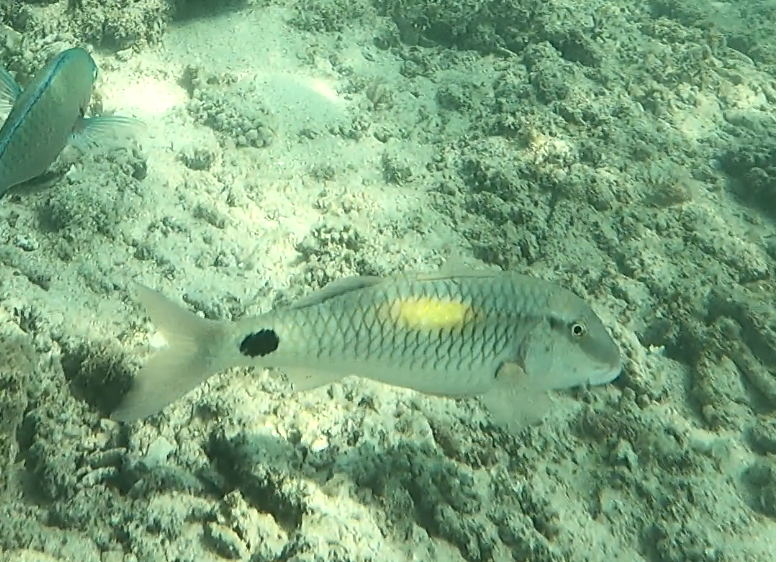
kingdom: Animalia
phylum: Chordata
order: Perciformes
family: Mullidae
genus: Parupeneus
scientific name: Parupeneus indicus
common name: Indian goatfish
